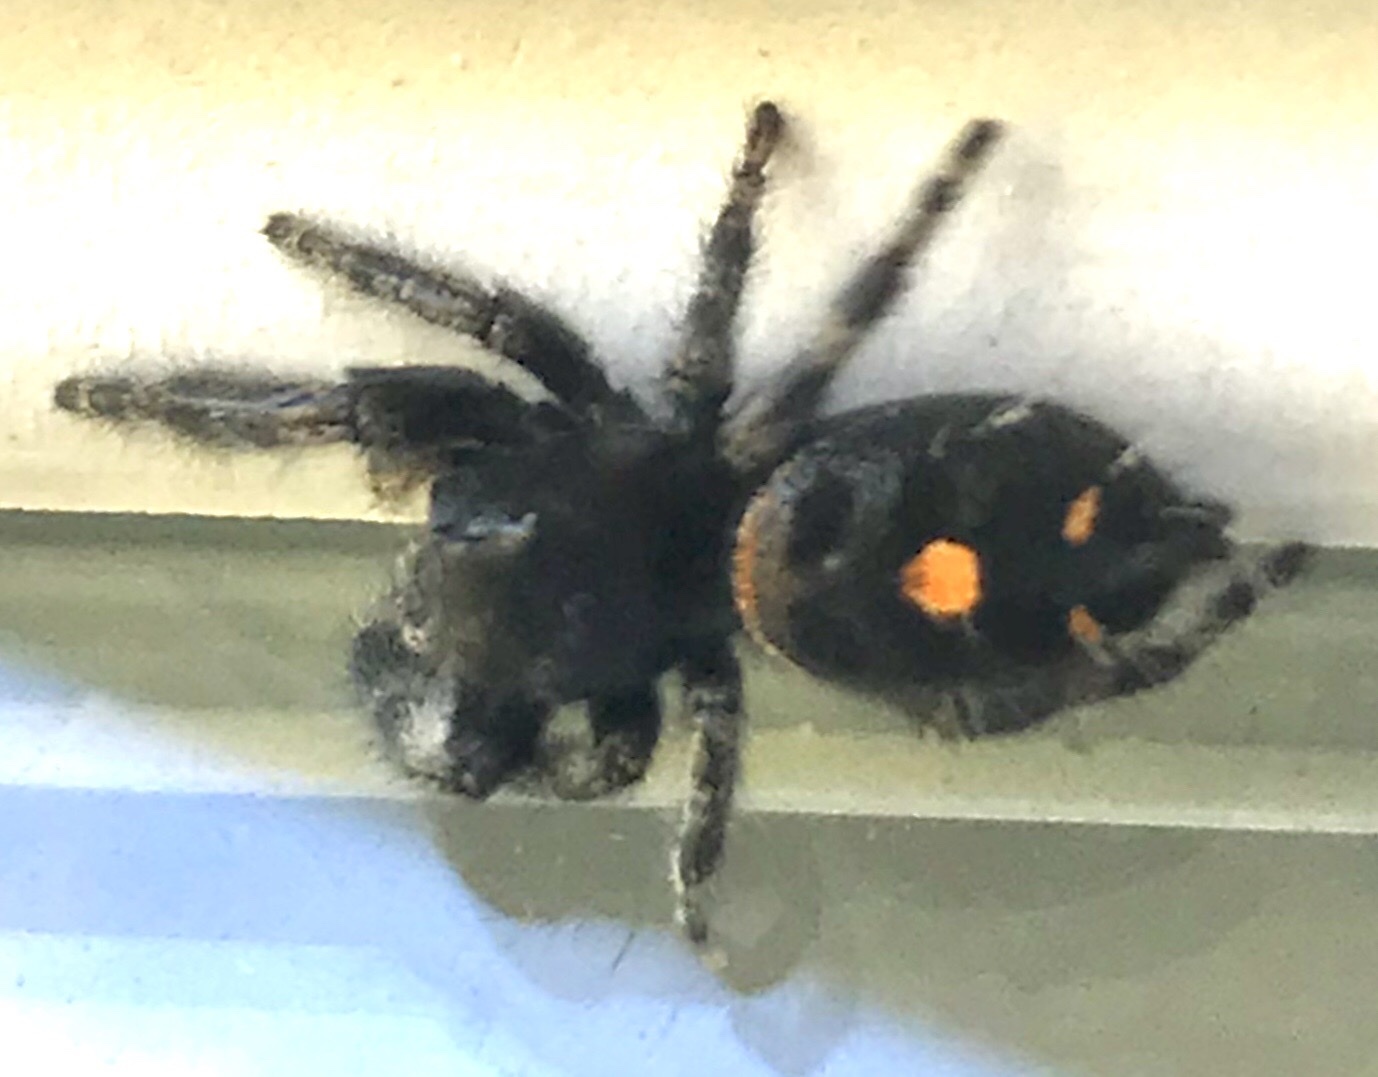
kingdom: Animalia
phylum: Arthropoda
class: Arachnida
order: Araneae
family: Salticidae
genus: Phidippus
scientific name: Phidippus audax
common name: Bold jumper
